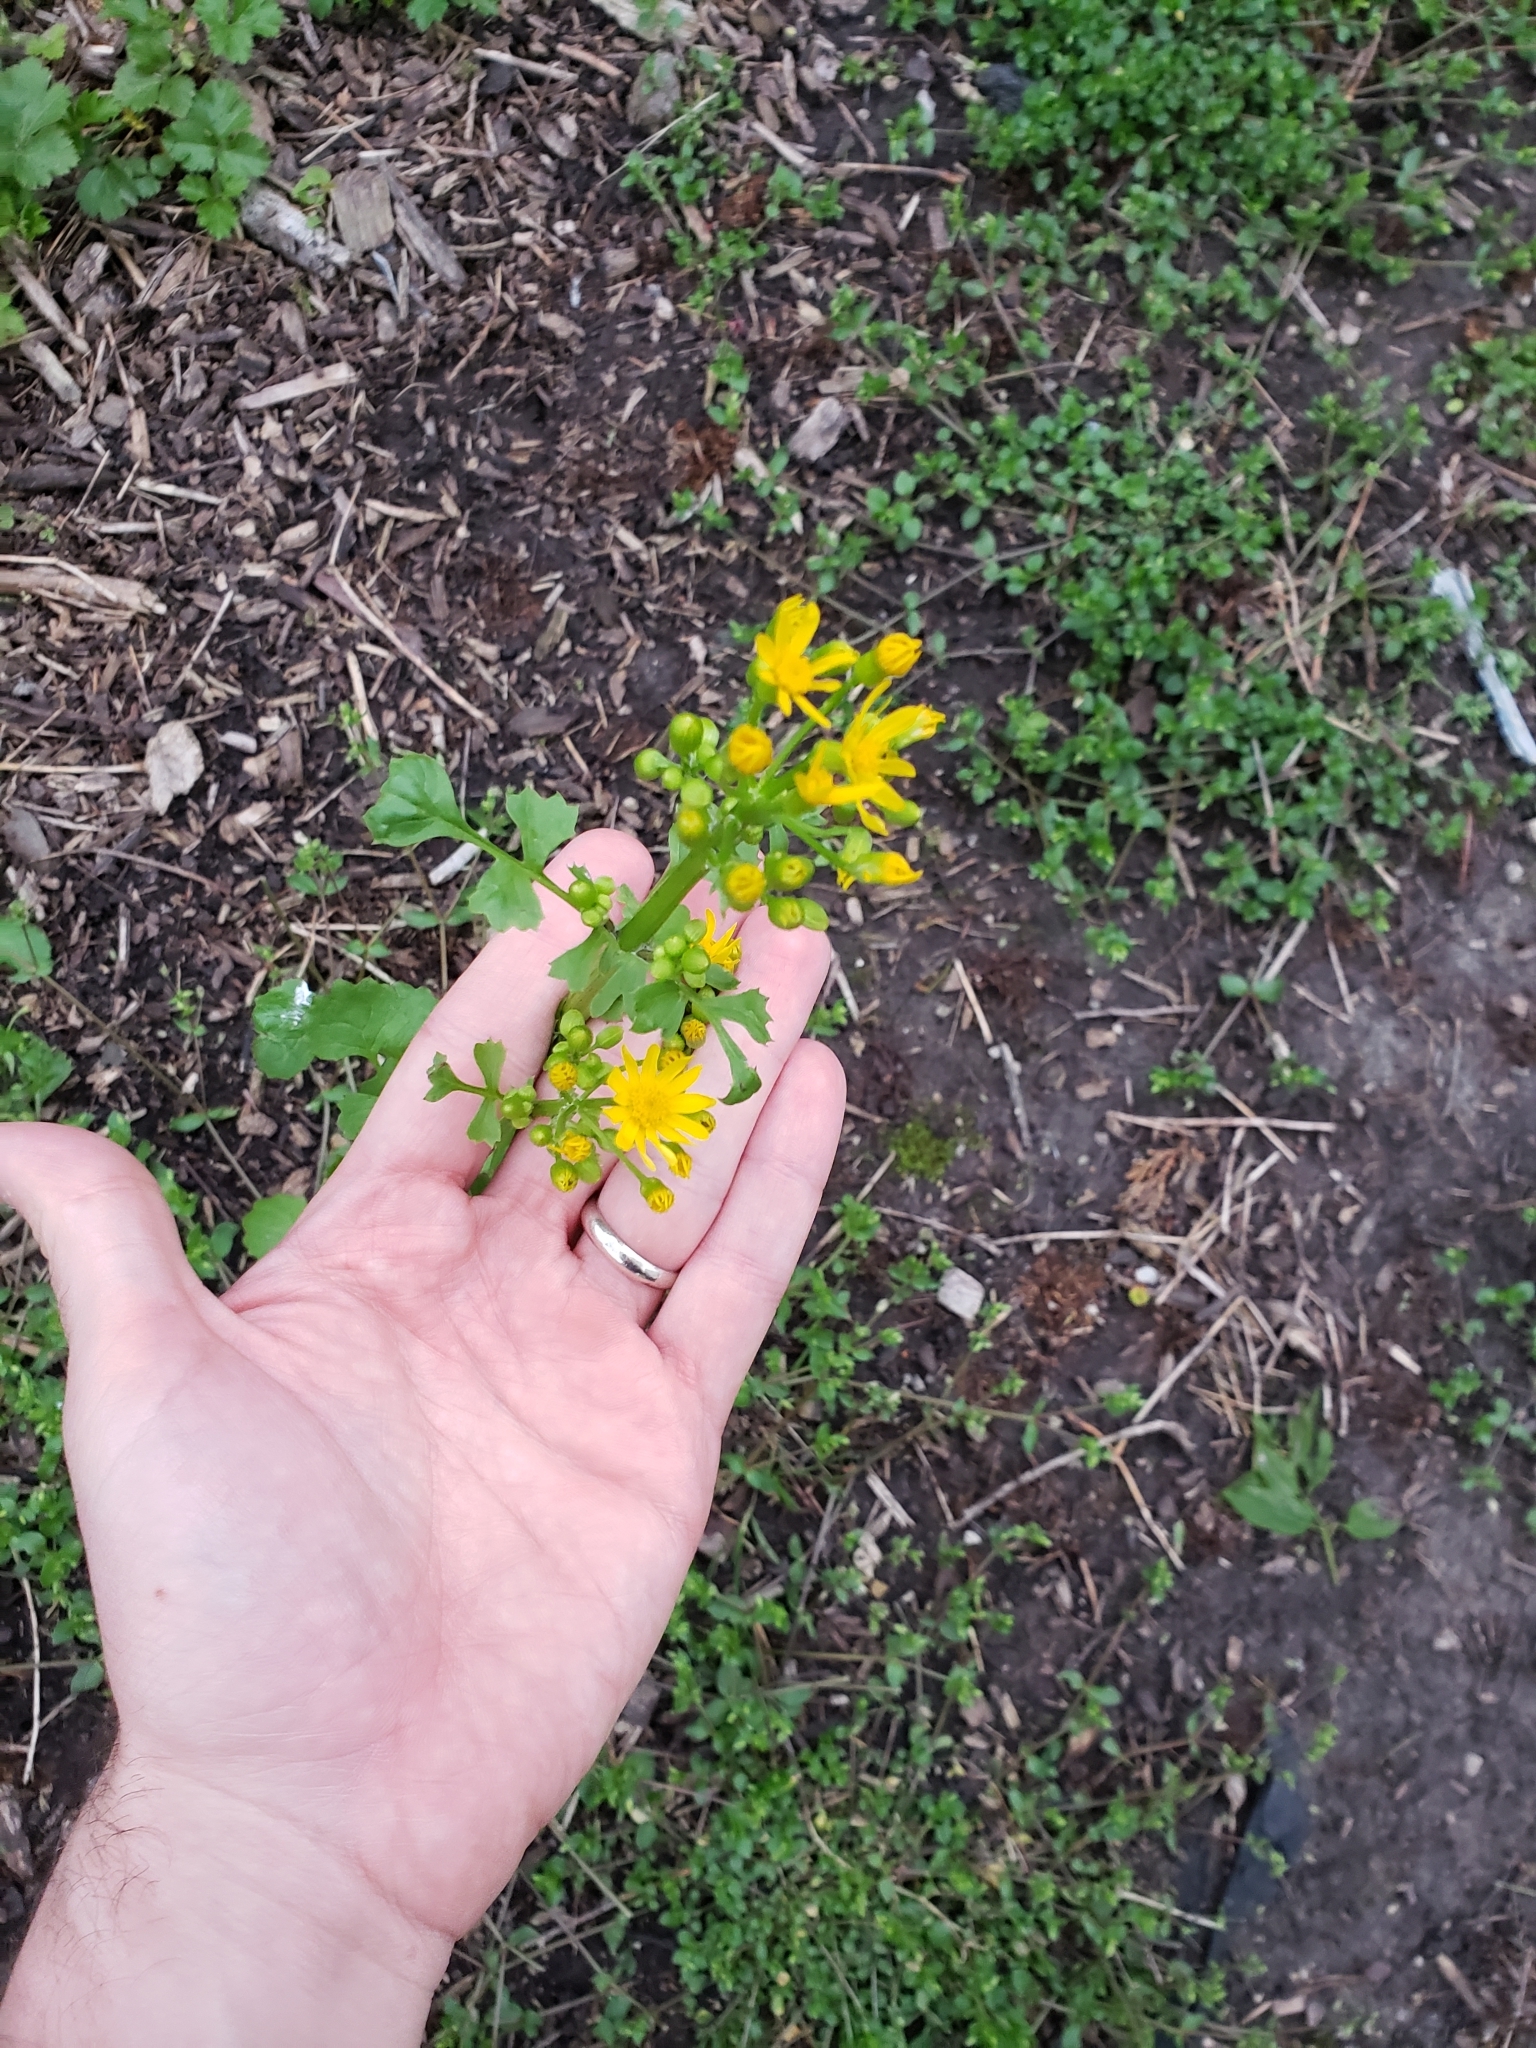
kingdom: Plantae
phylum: Tracheophyta
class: Magnoliopsida
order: Brassicales
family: Brassicaceae
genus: Barbarea
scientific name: Barbarea vulgaris
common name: Cressy-greens
